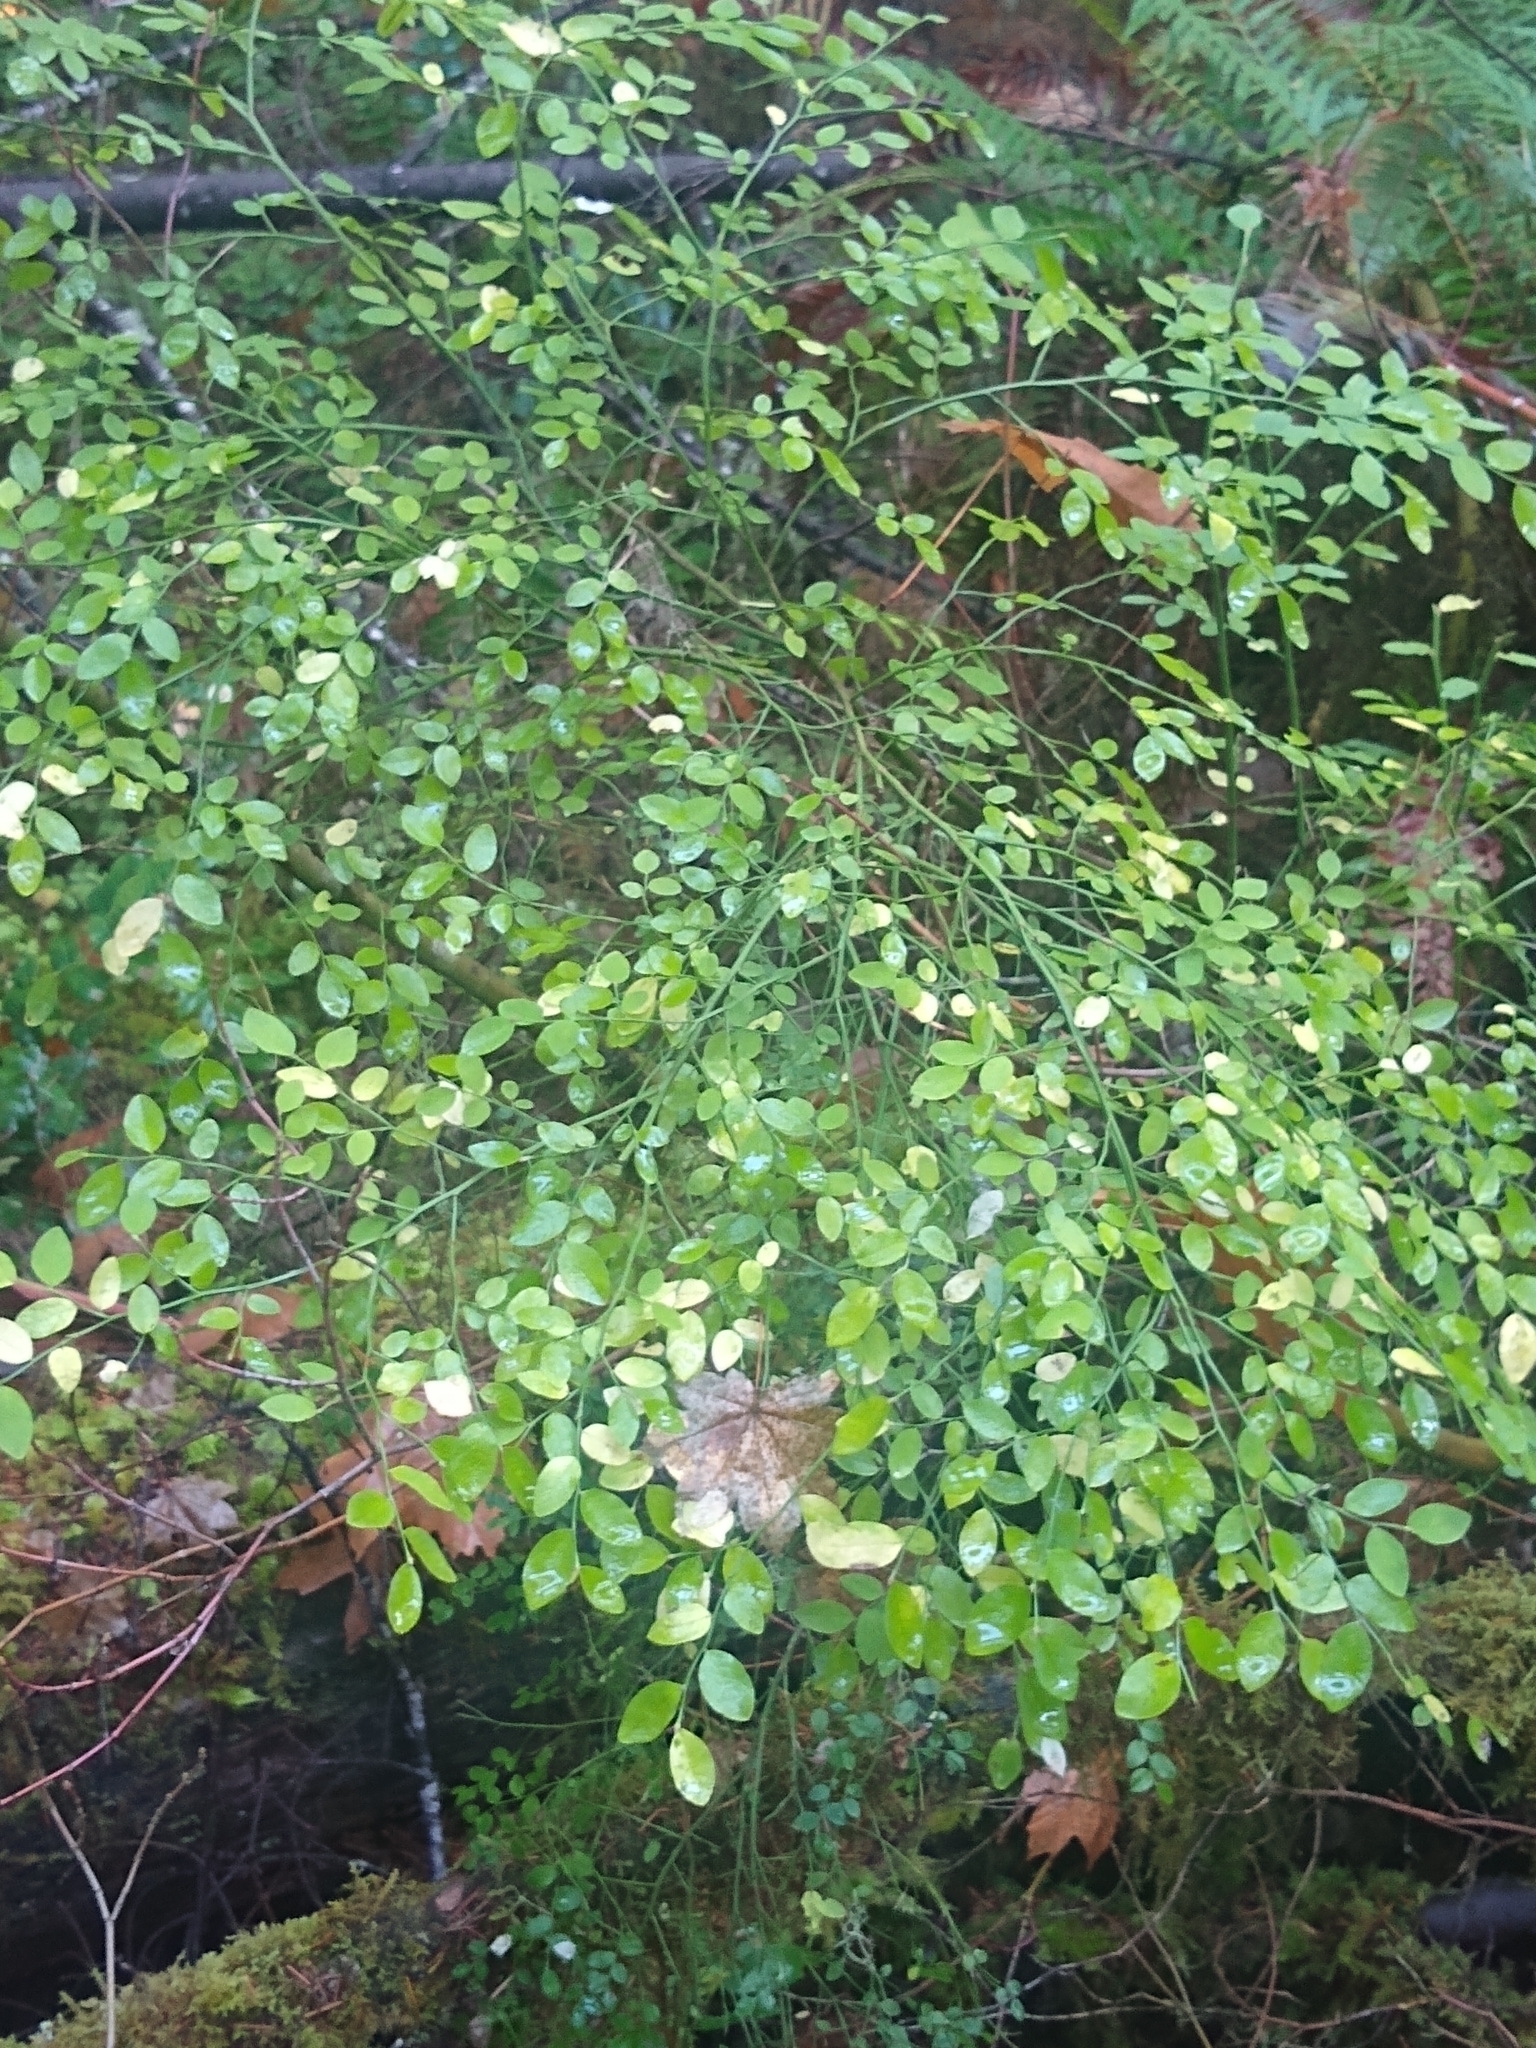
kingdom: Plantae
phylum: Tracheophyta
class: Magnoliopsida
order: Ericales
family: Ericaceae
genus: Vaccinium
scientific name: Vaccinium parvifolium
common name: Red-huckleberry
